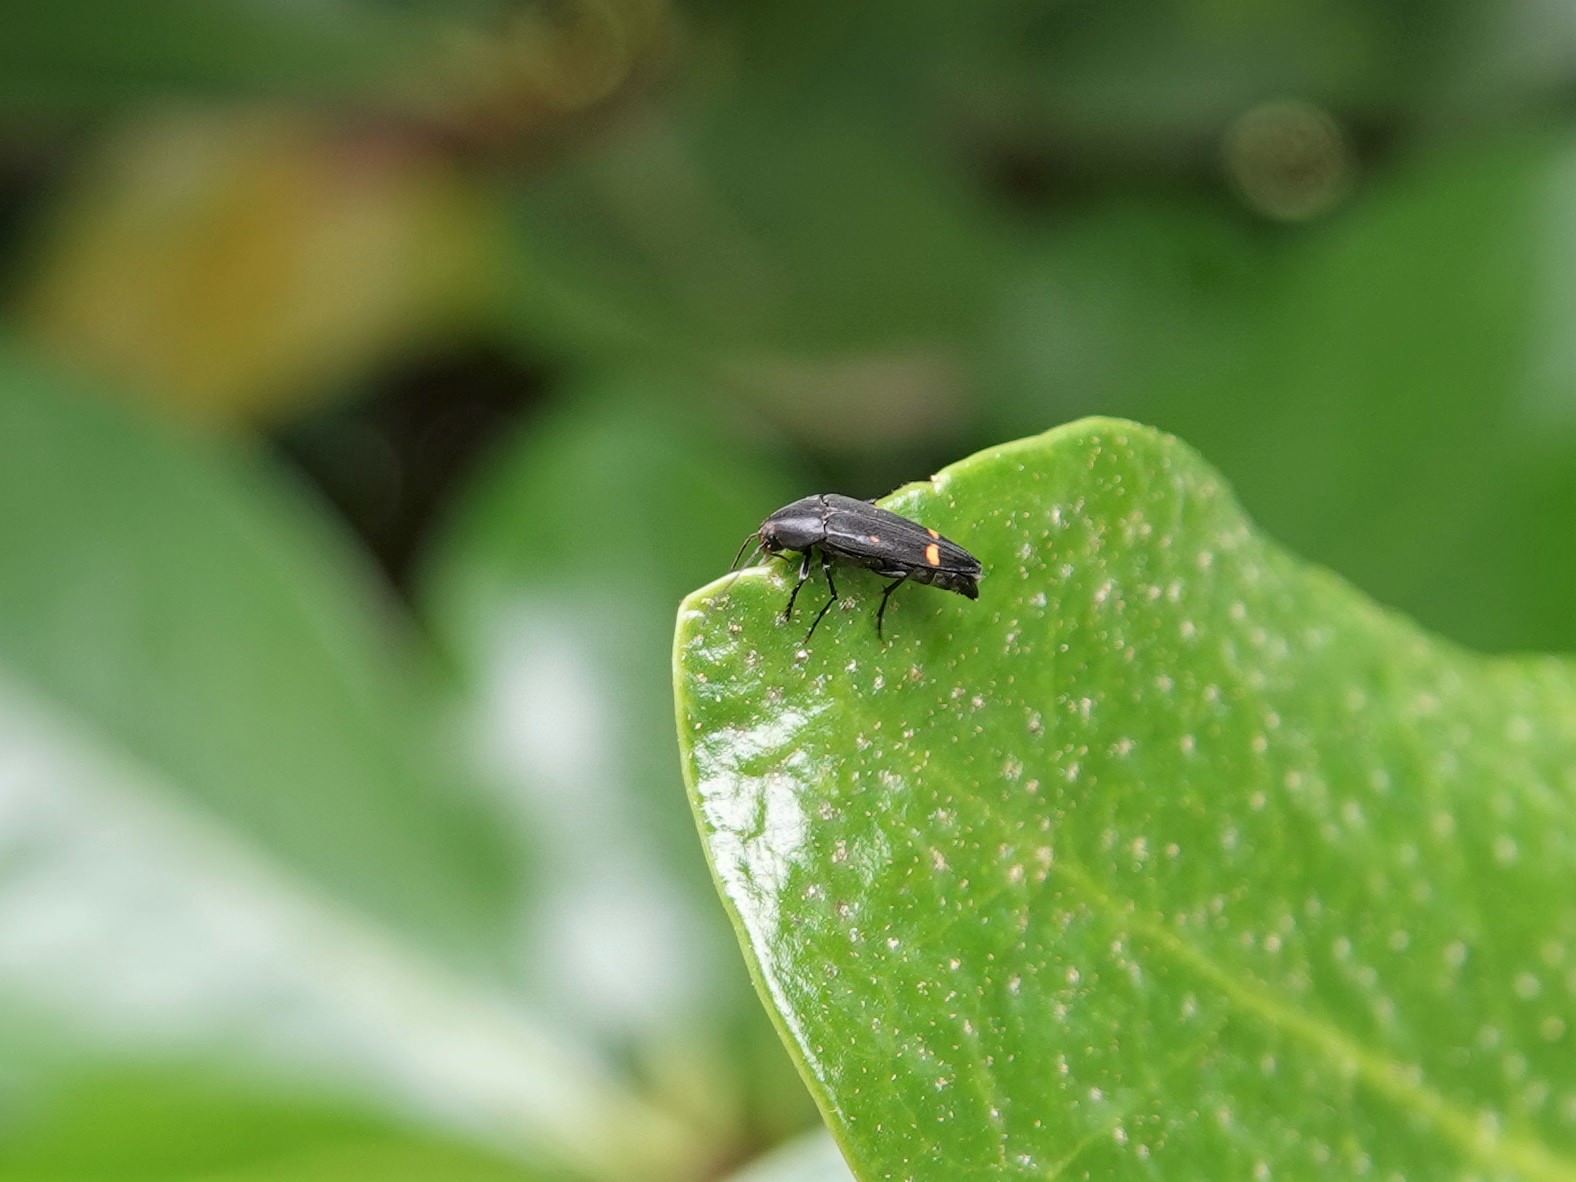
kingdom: Animalia
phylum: Arthropoda
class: Insecta
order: Coleoptera
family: Melandryidae
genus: Ctenoplectron
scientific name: Ctenoplectron
